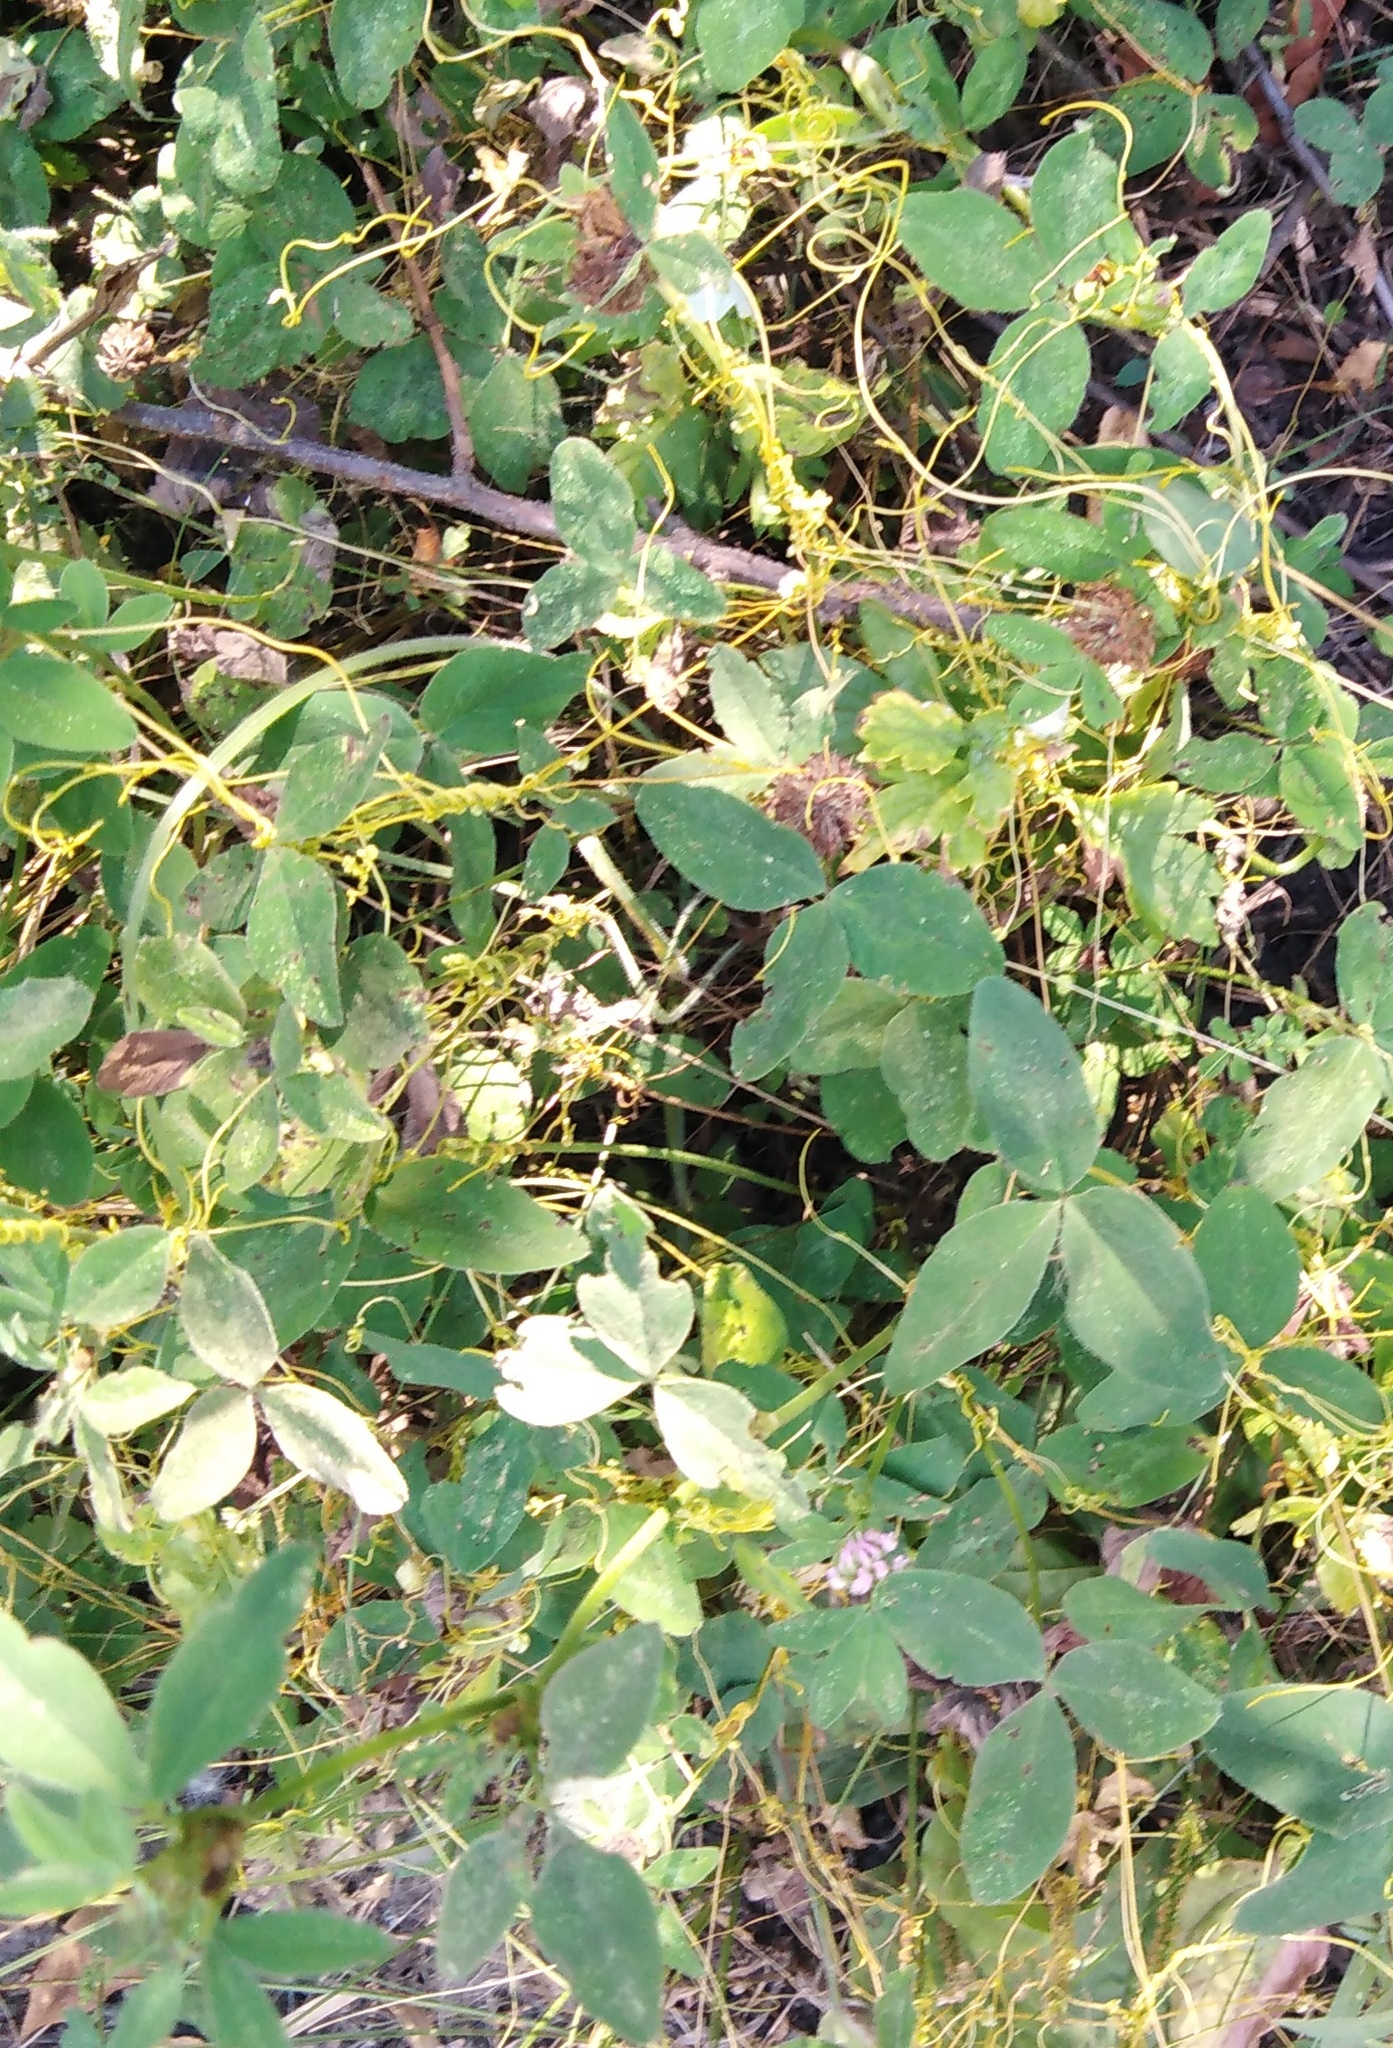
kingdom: Plantae
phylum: Tracheophyta
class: Magnoliopsida
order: Solanales
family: Convolvulaceae
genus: Cuscuta
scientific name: Cuscuta campestris
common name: Yellow dodder
